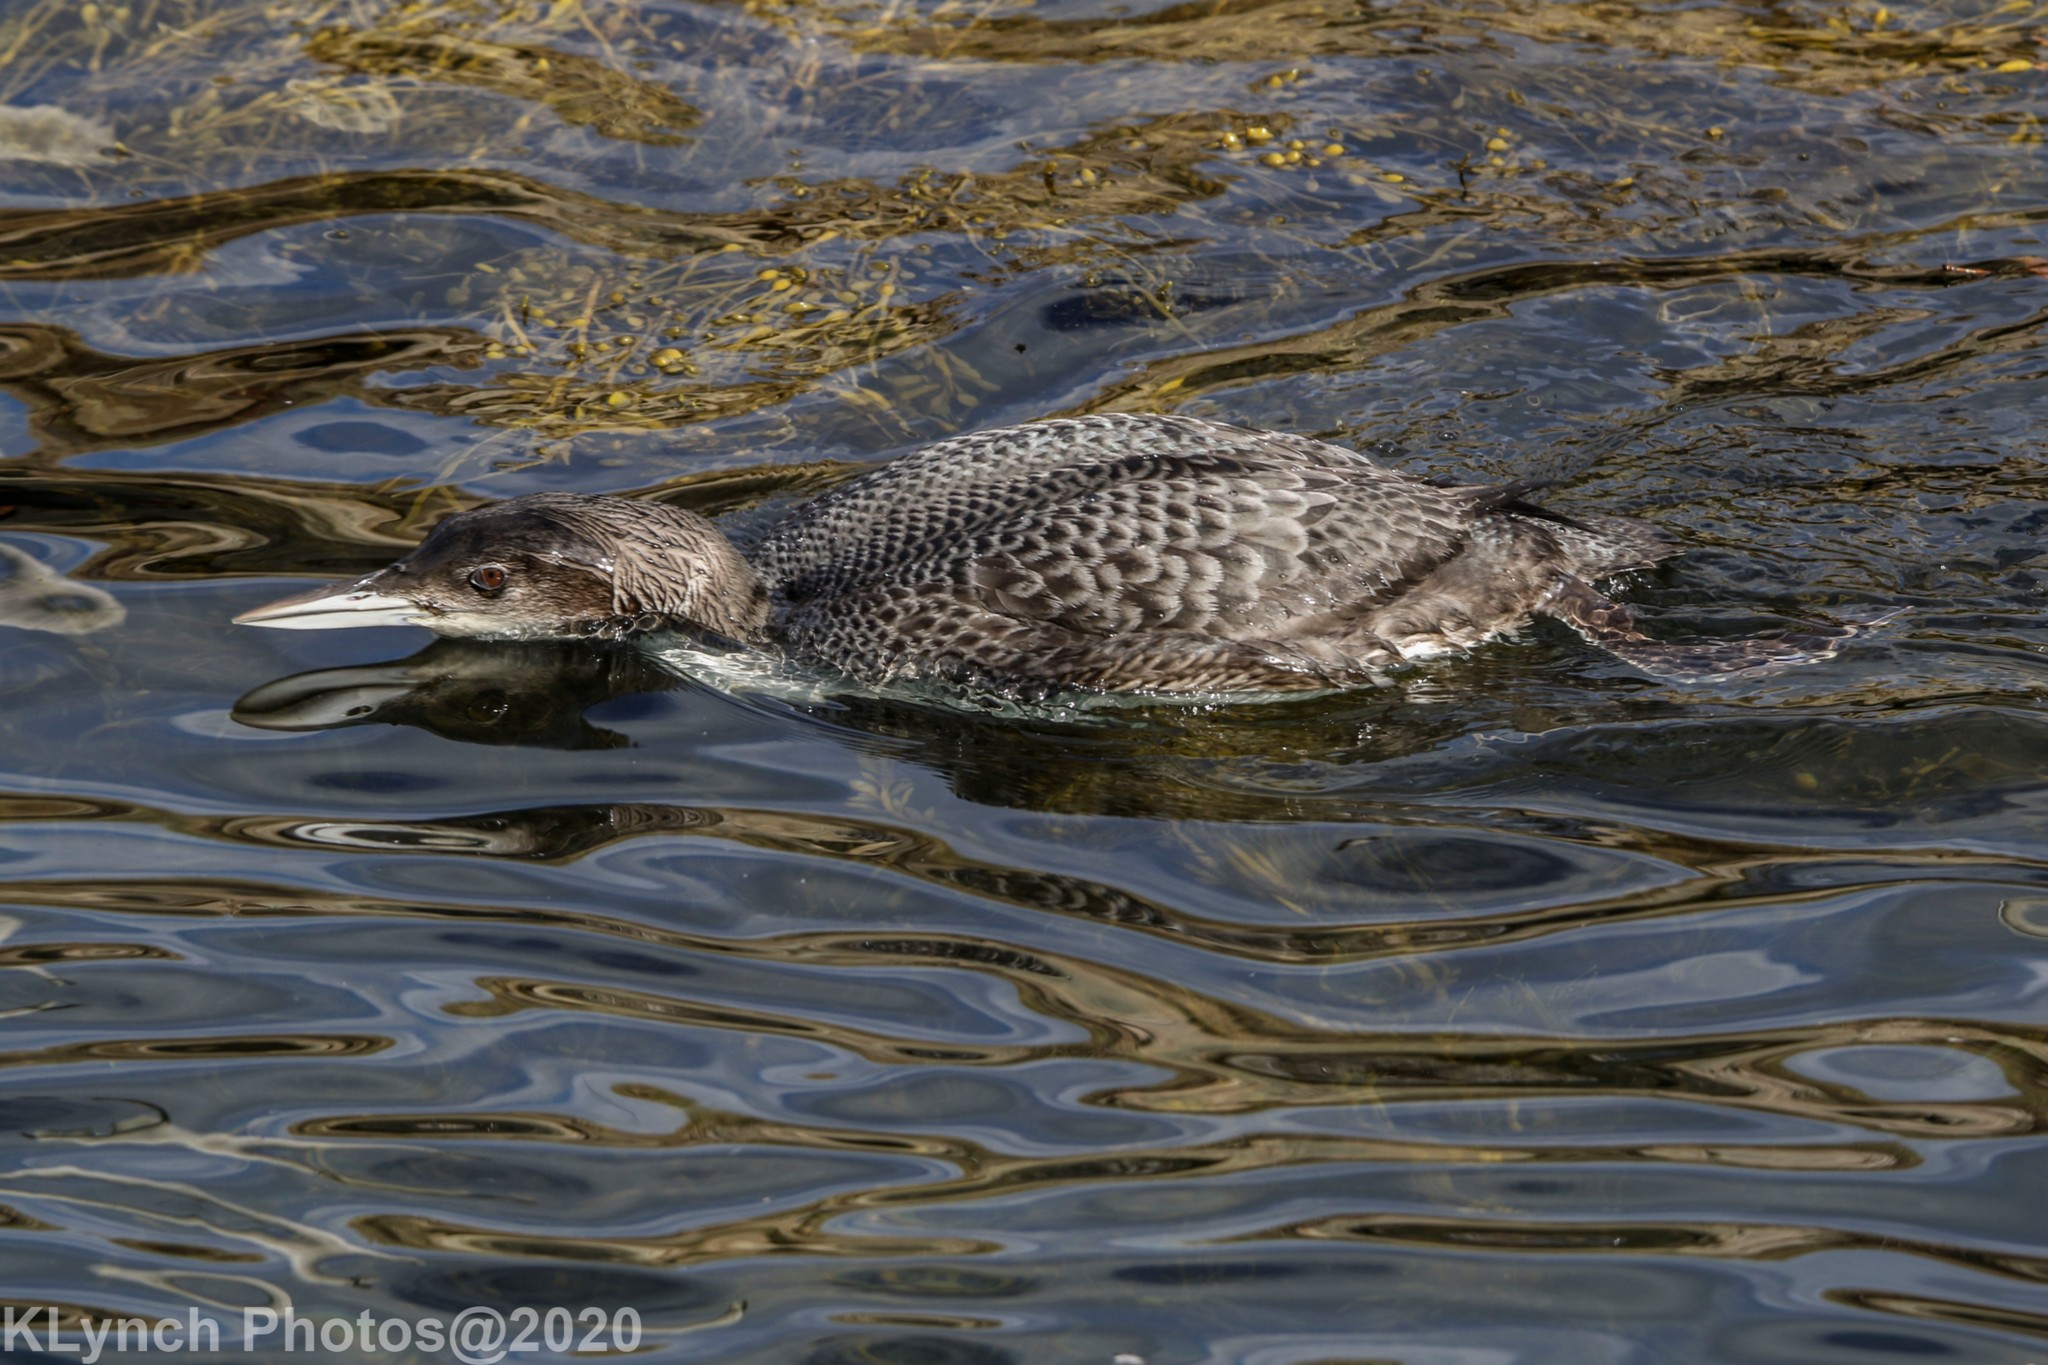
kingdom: Animalia
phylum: Chordata
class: Aves
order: Gaviiformes
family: Gaviidae
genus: Gavia
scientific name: Gavia immer
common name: Common loon
